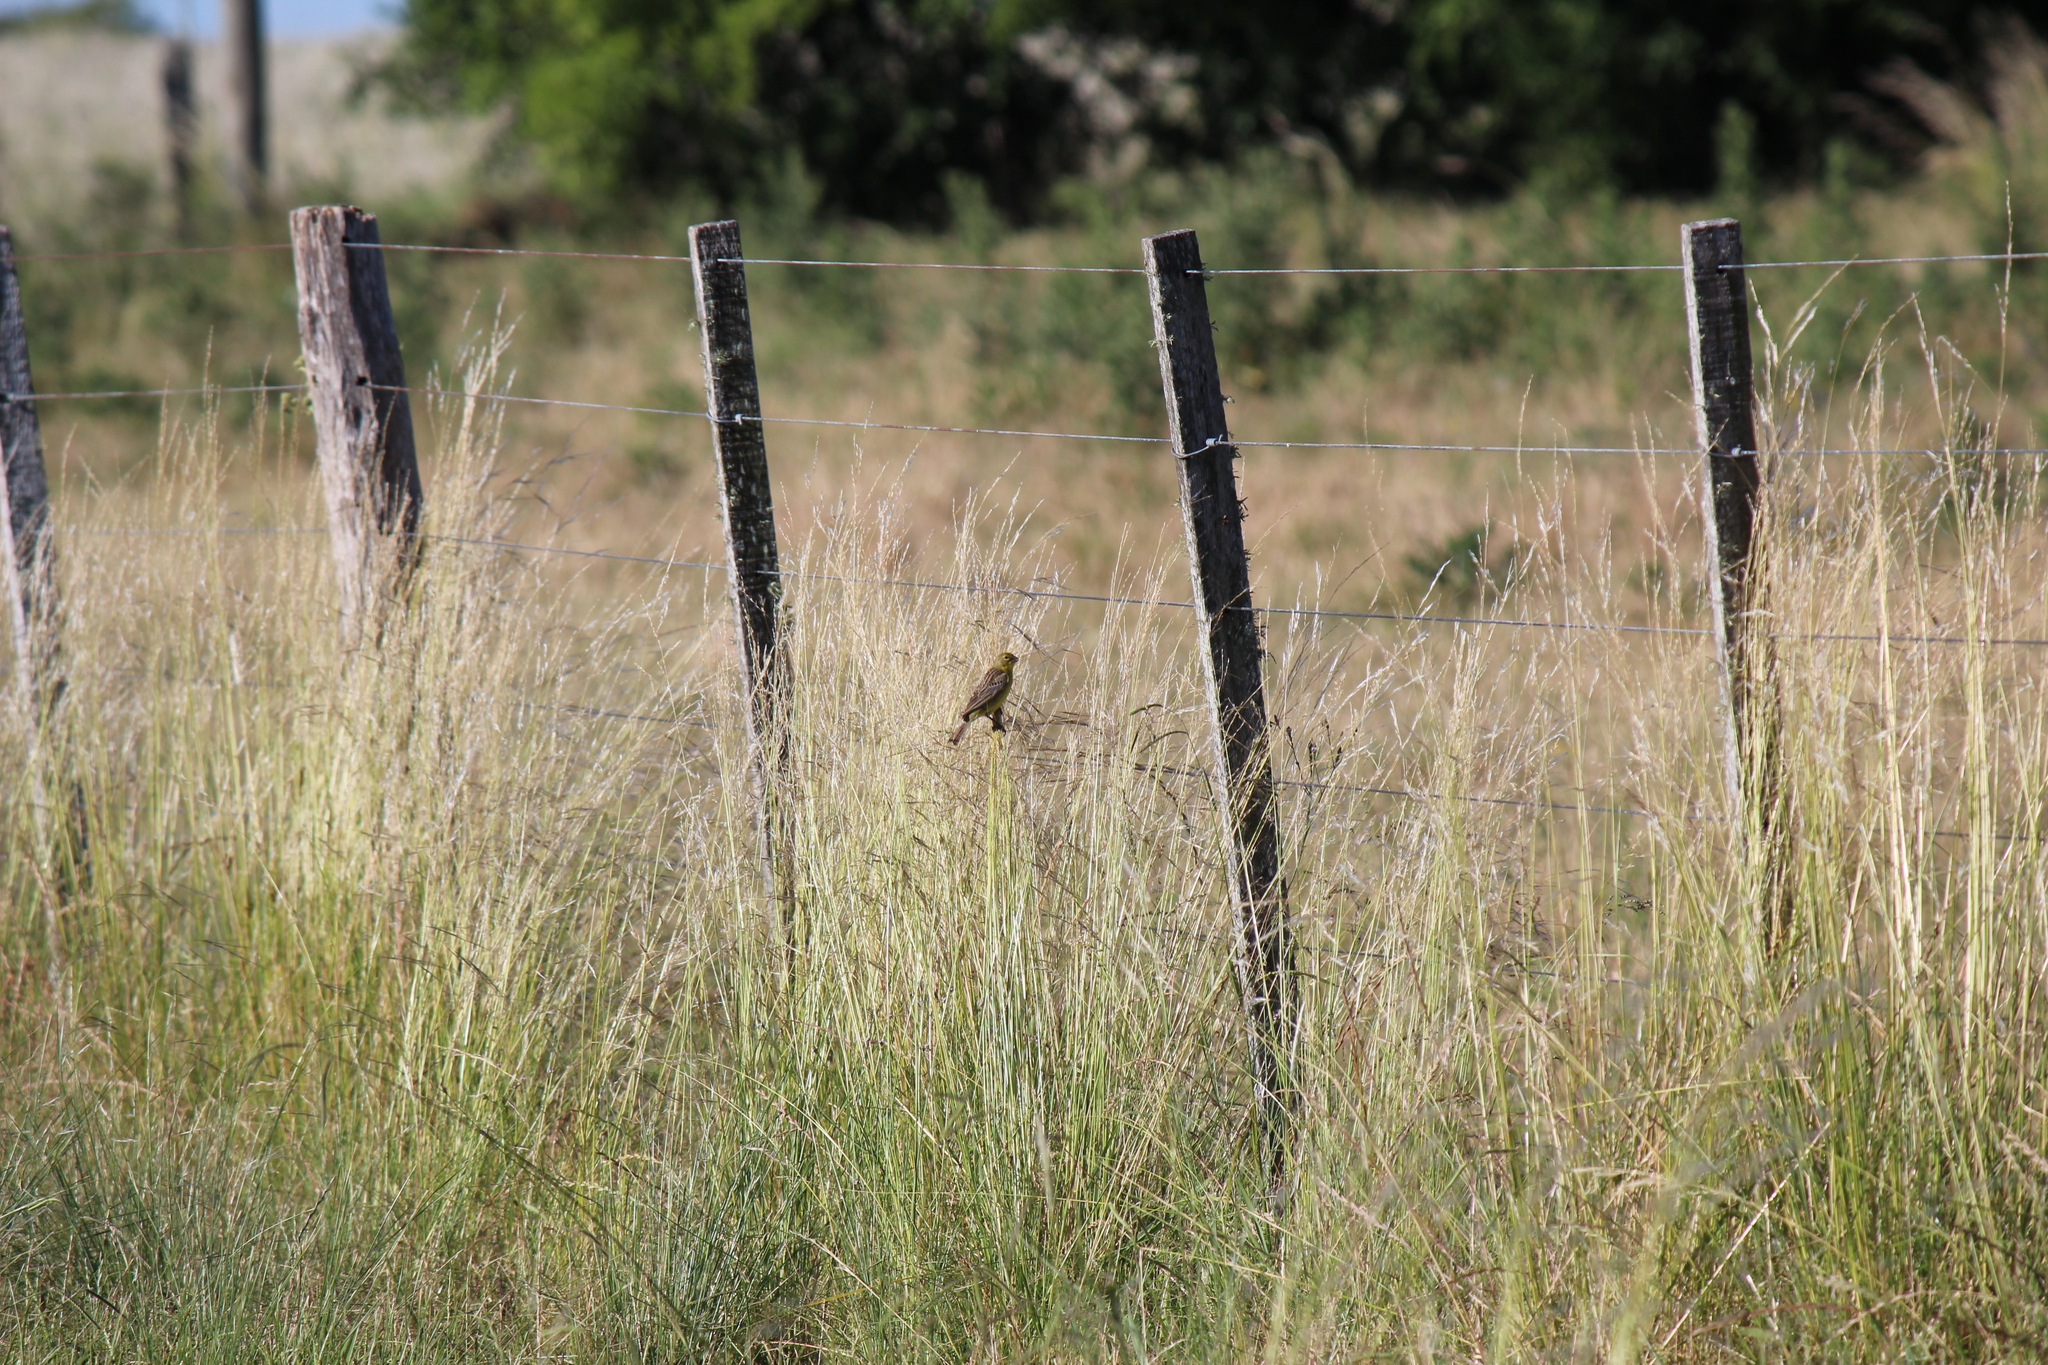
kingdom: Animalia
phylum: Chordata
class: Aves
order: Passeriformes
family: Thraupidae
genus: Sicalis
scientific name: Sicalis luteola
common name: Grassland yellow-finch
